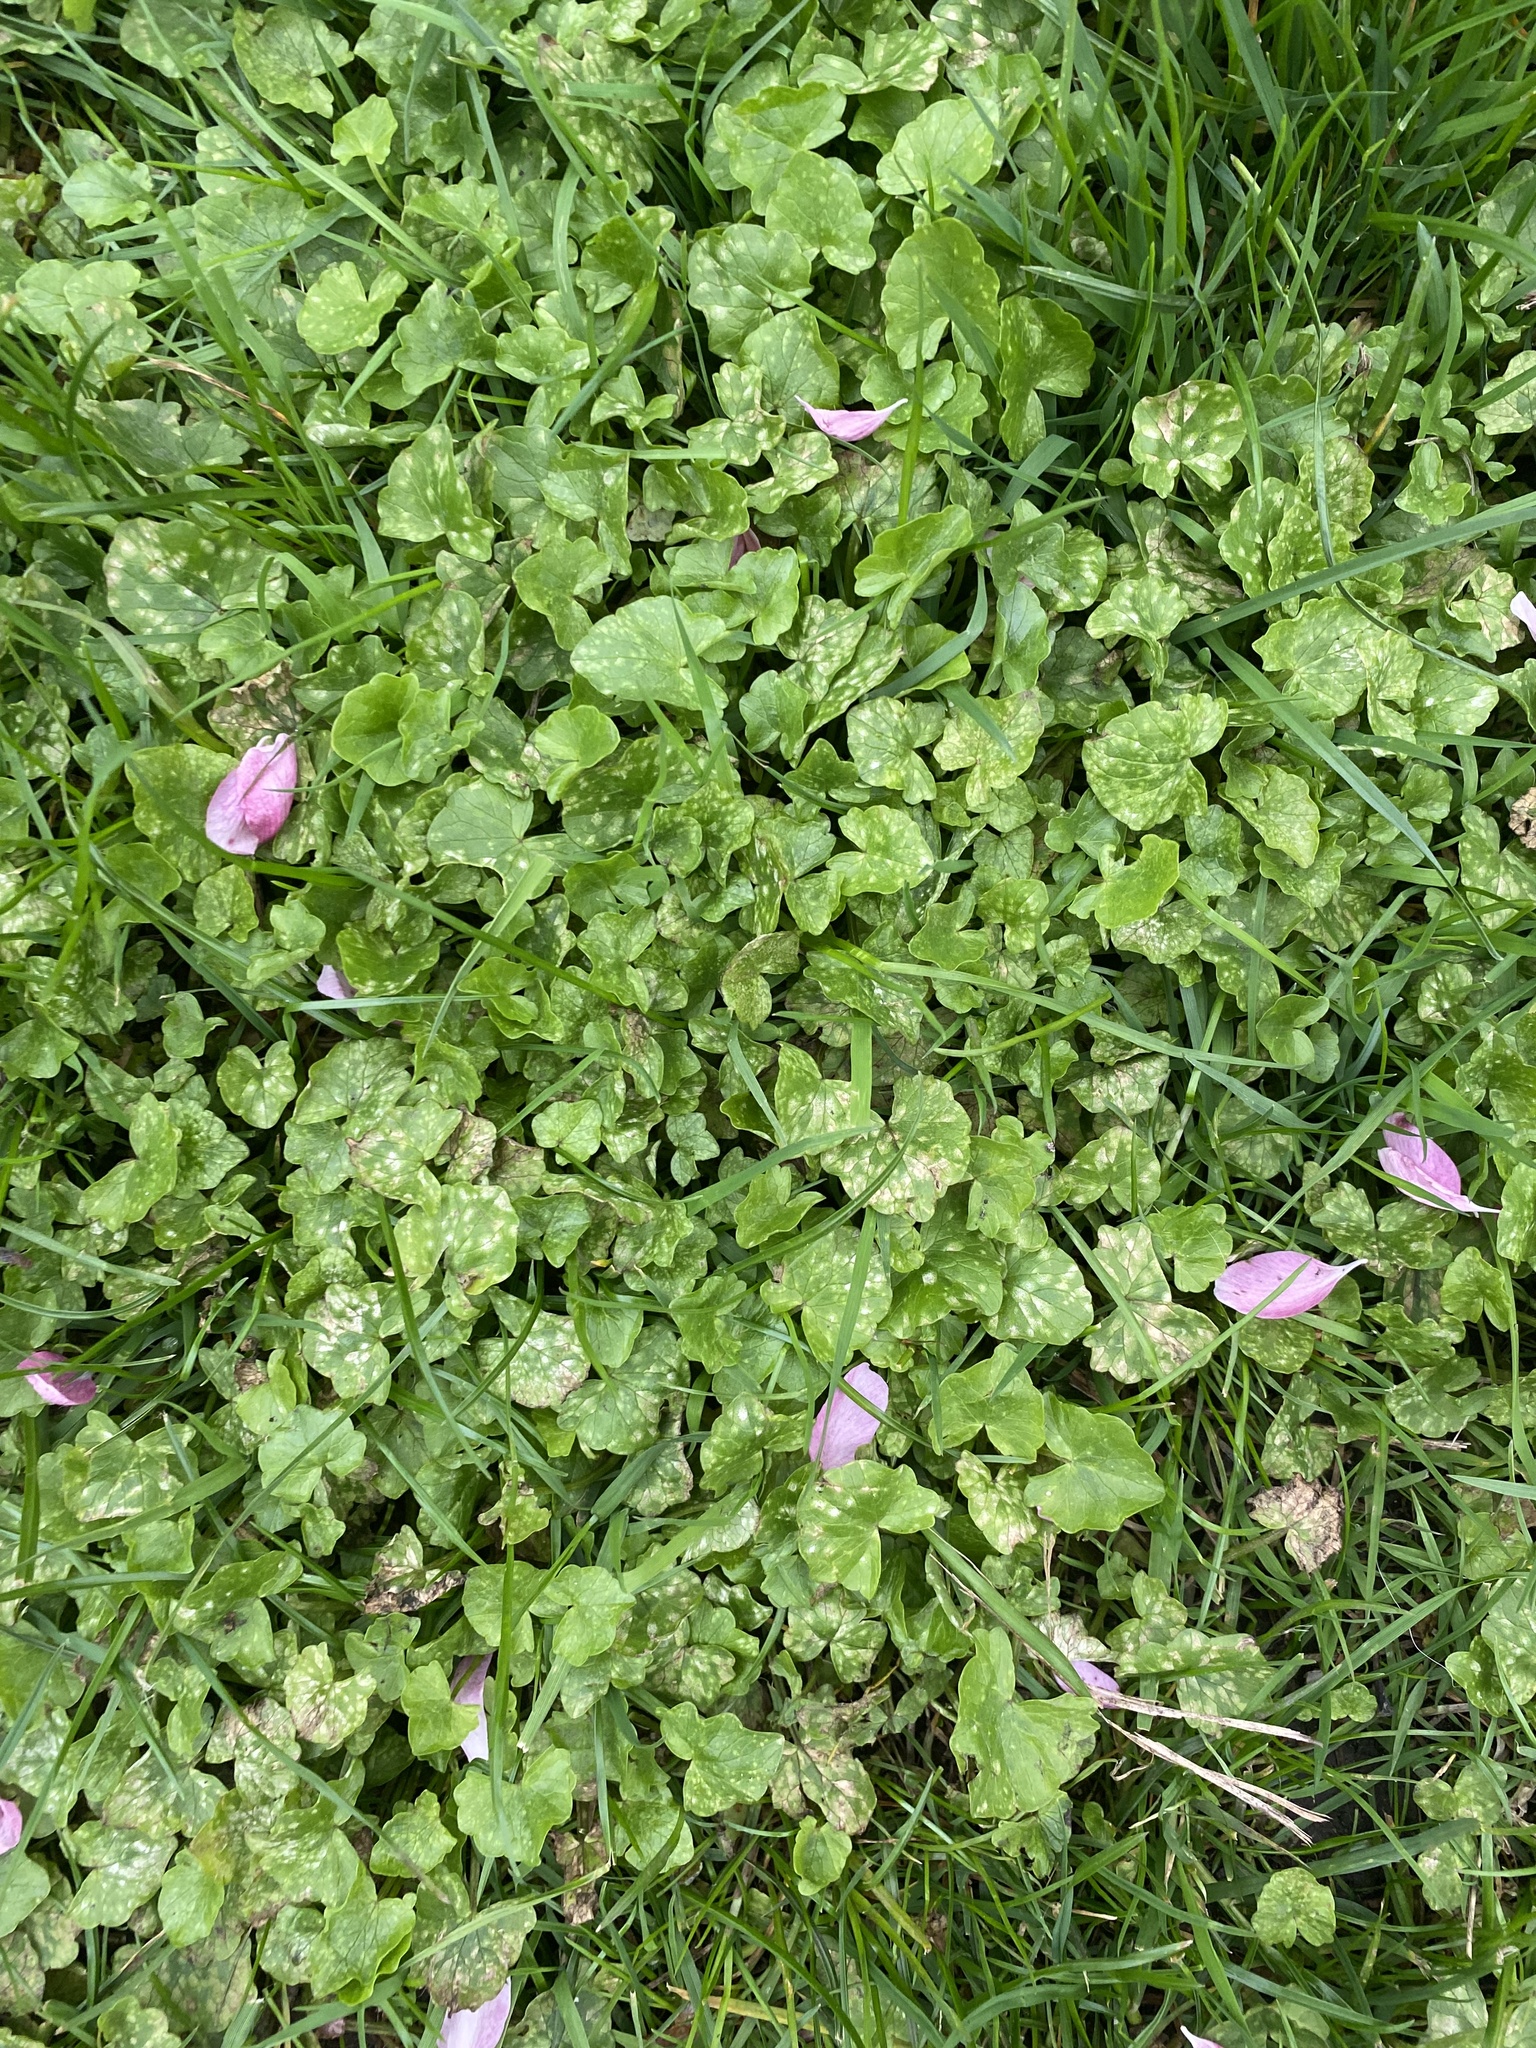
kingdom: Plantae
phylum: Tracheophyta
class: Magnoliopsida
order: Ranunculales
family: Ranunculaceae
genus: Ficaria
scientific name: Ficaria verna
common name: Lesser celandine
